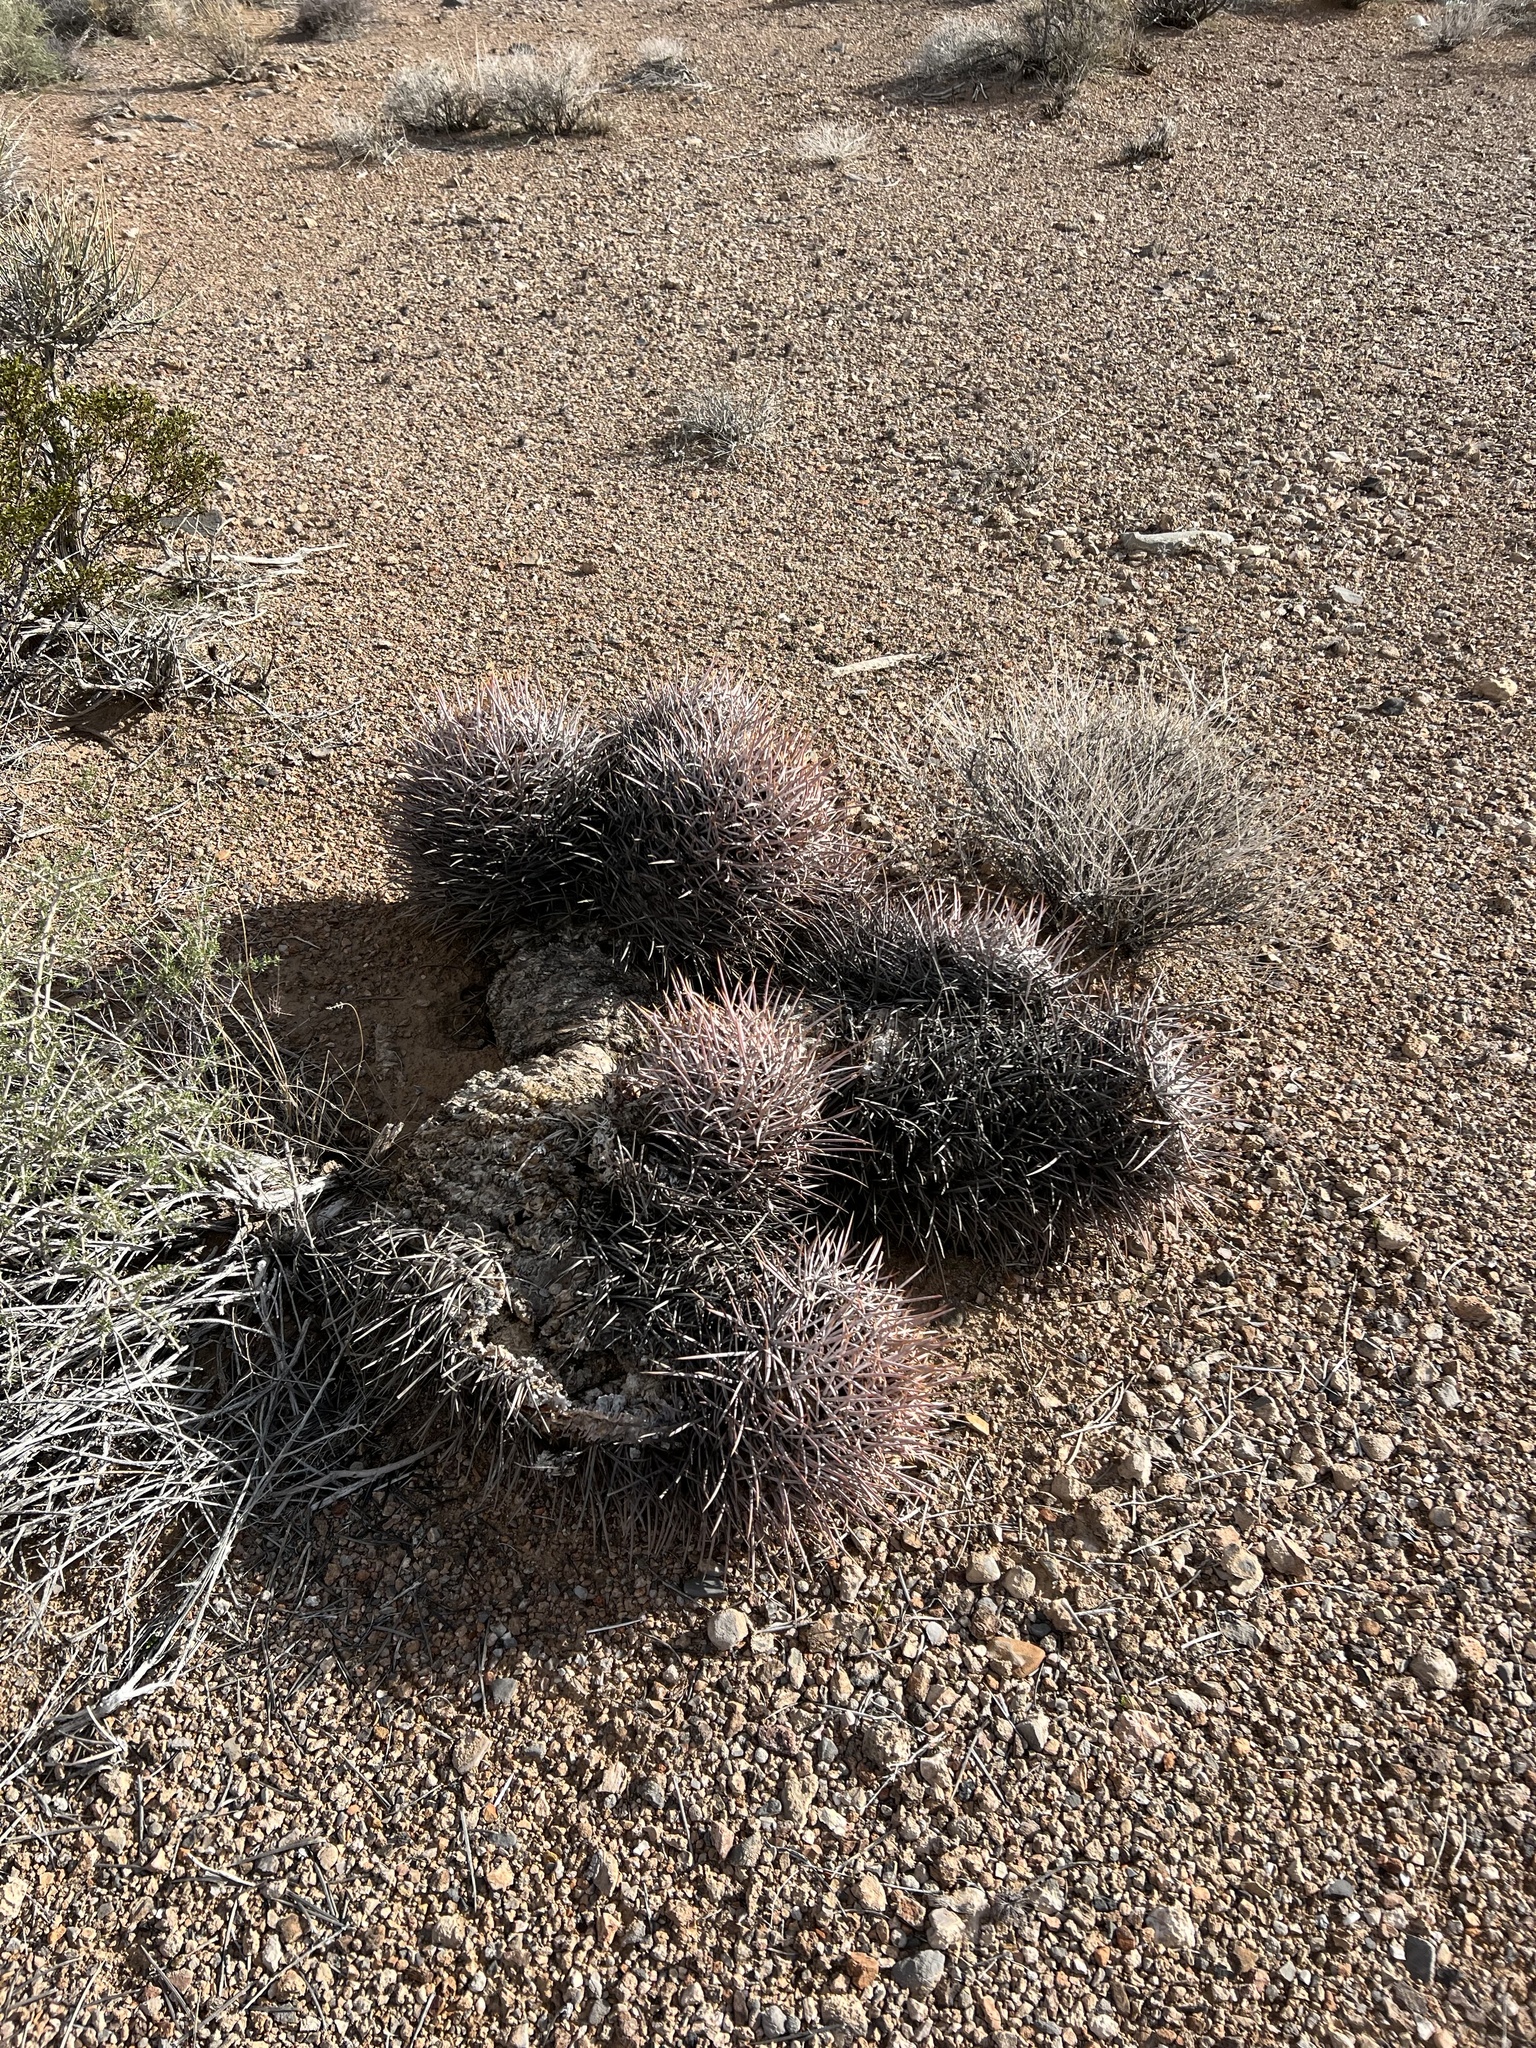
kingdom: Plantae
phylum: Tracheophyta
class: Magnoliopsida
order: Caryophyllales
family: Cactaceae
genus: Echinocactus
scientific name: Echinocactus polycephalus
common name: Cottontop cactus
